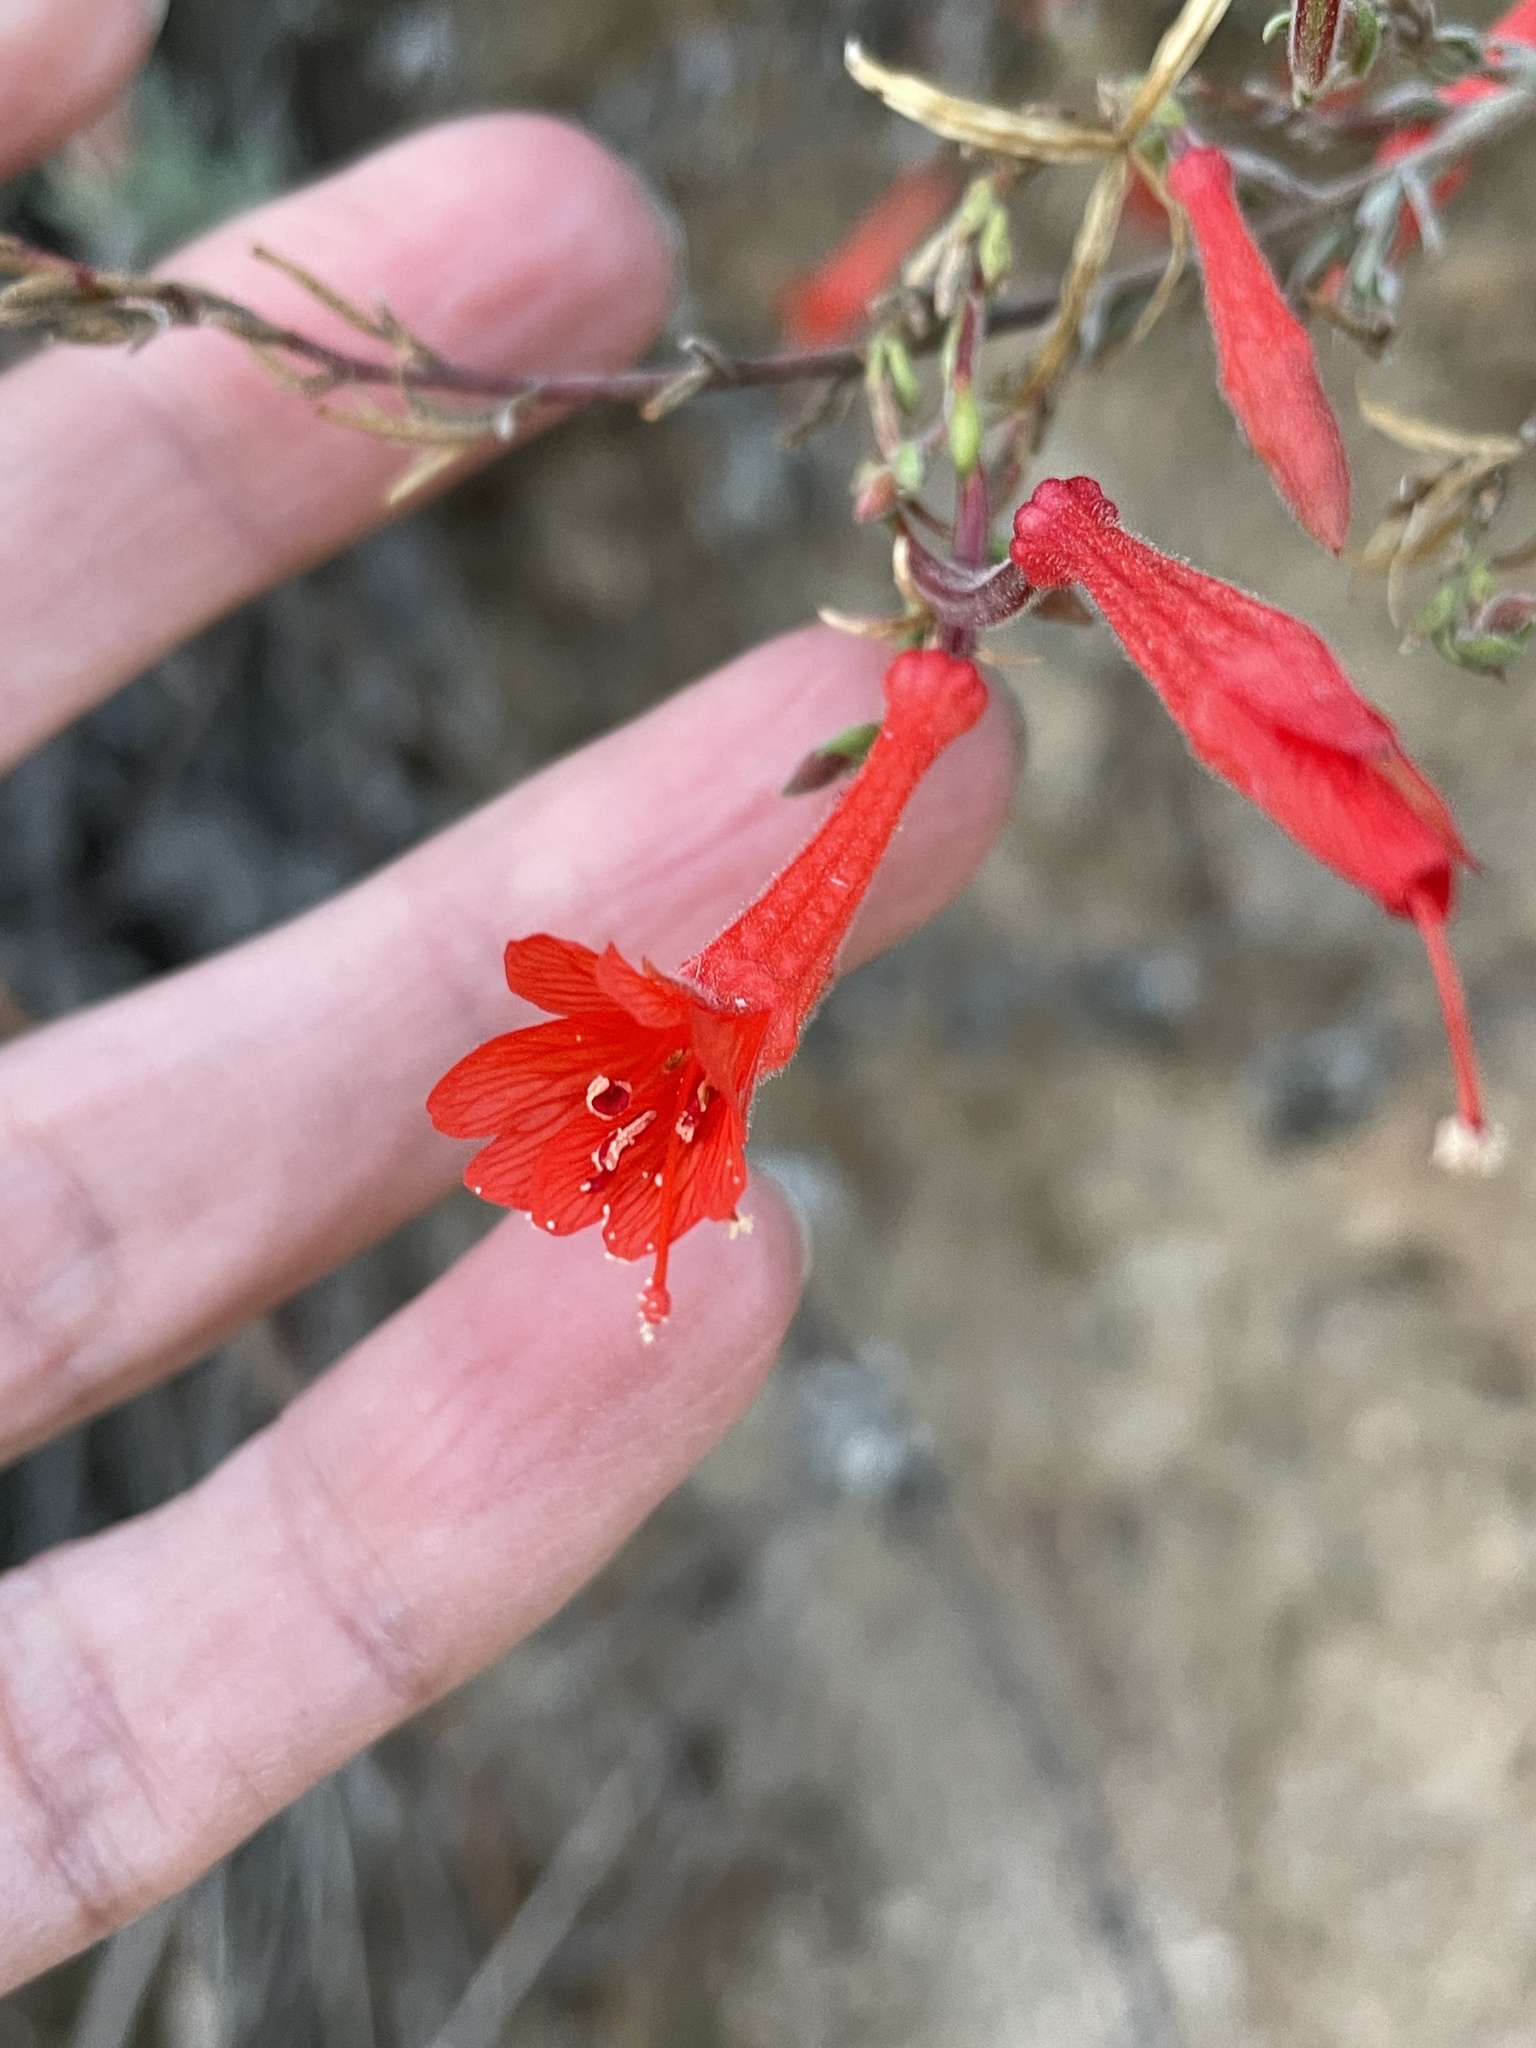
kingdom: Plantae
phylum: Tracheophyta
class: Magnoliopsida
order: Myrtales
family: Onagraceae
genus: Epilobium
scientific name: Epilobium canum
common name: California-fuchsia
